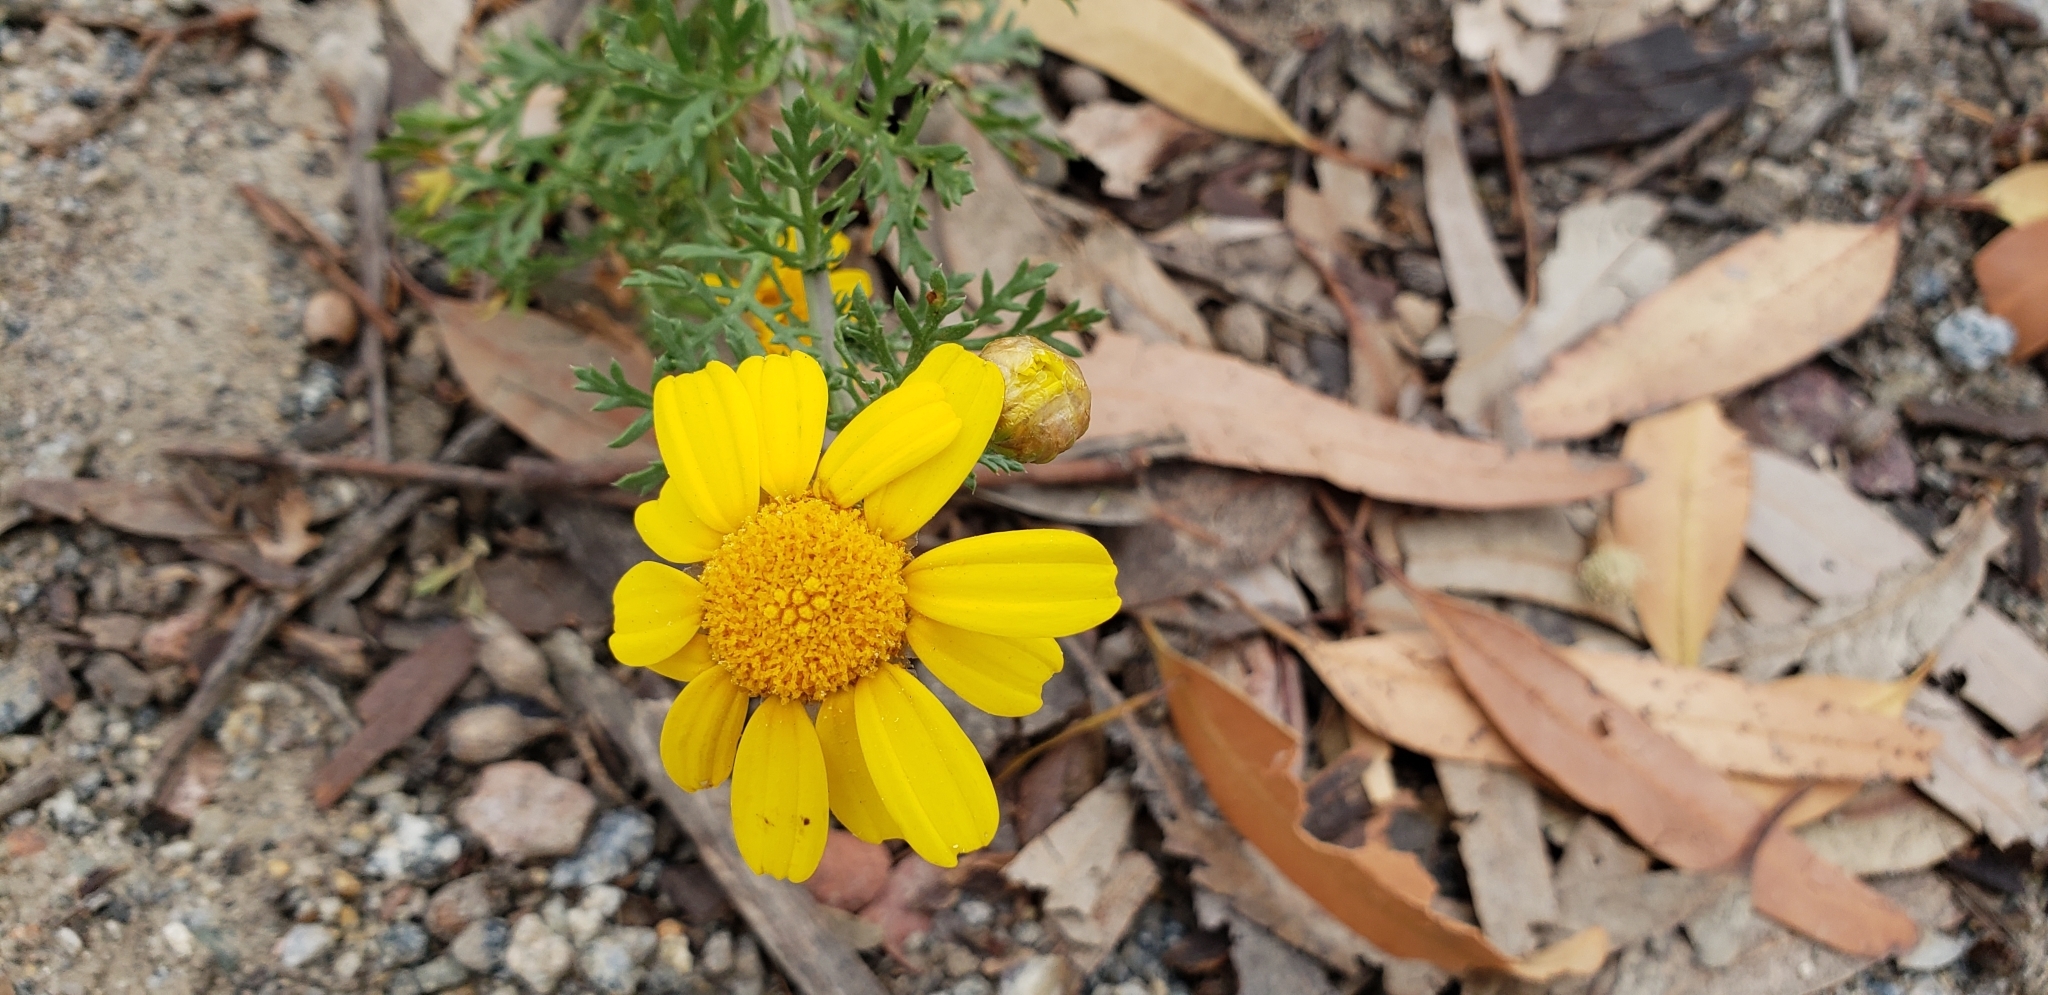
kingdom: Plantae
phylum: Tracheophyta
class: Magnoliopsida
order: Asterales
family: Asteraceae
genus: Glebionis
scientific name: Glebionis coronaria
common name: Crowndaisy
